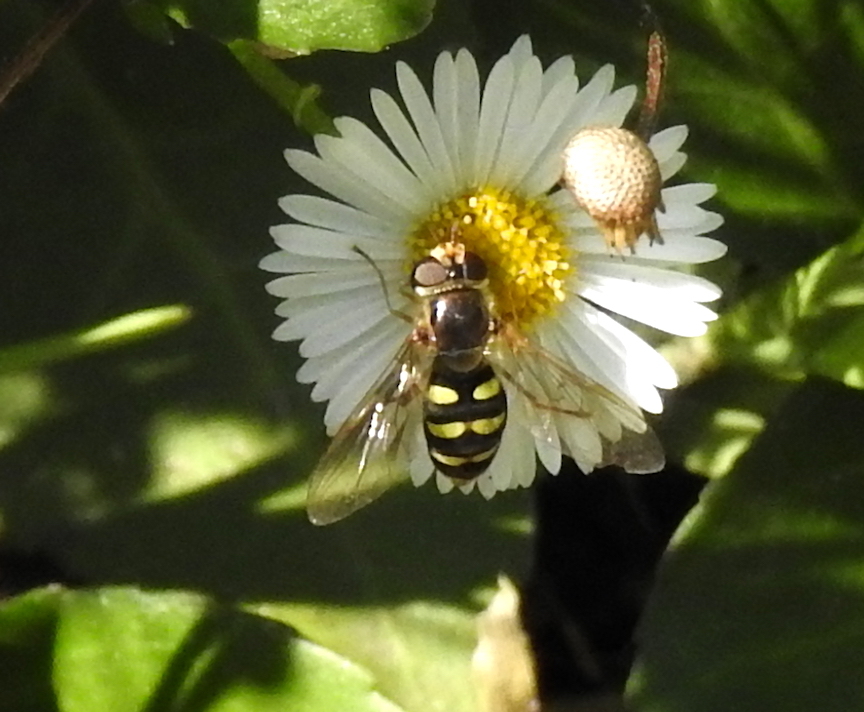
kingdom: Animalia
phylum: Arthropoda
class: Insecta
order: Diptera
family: Syrphidae
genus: Eupeodes
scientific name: Eupeodes fumipennis
